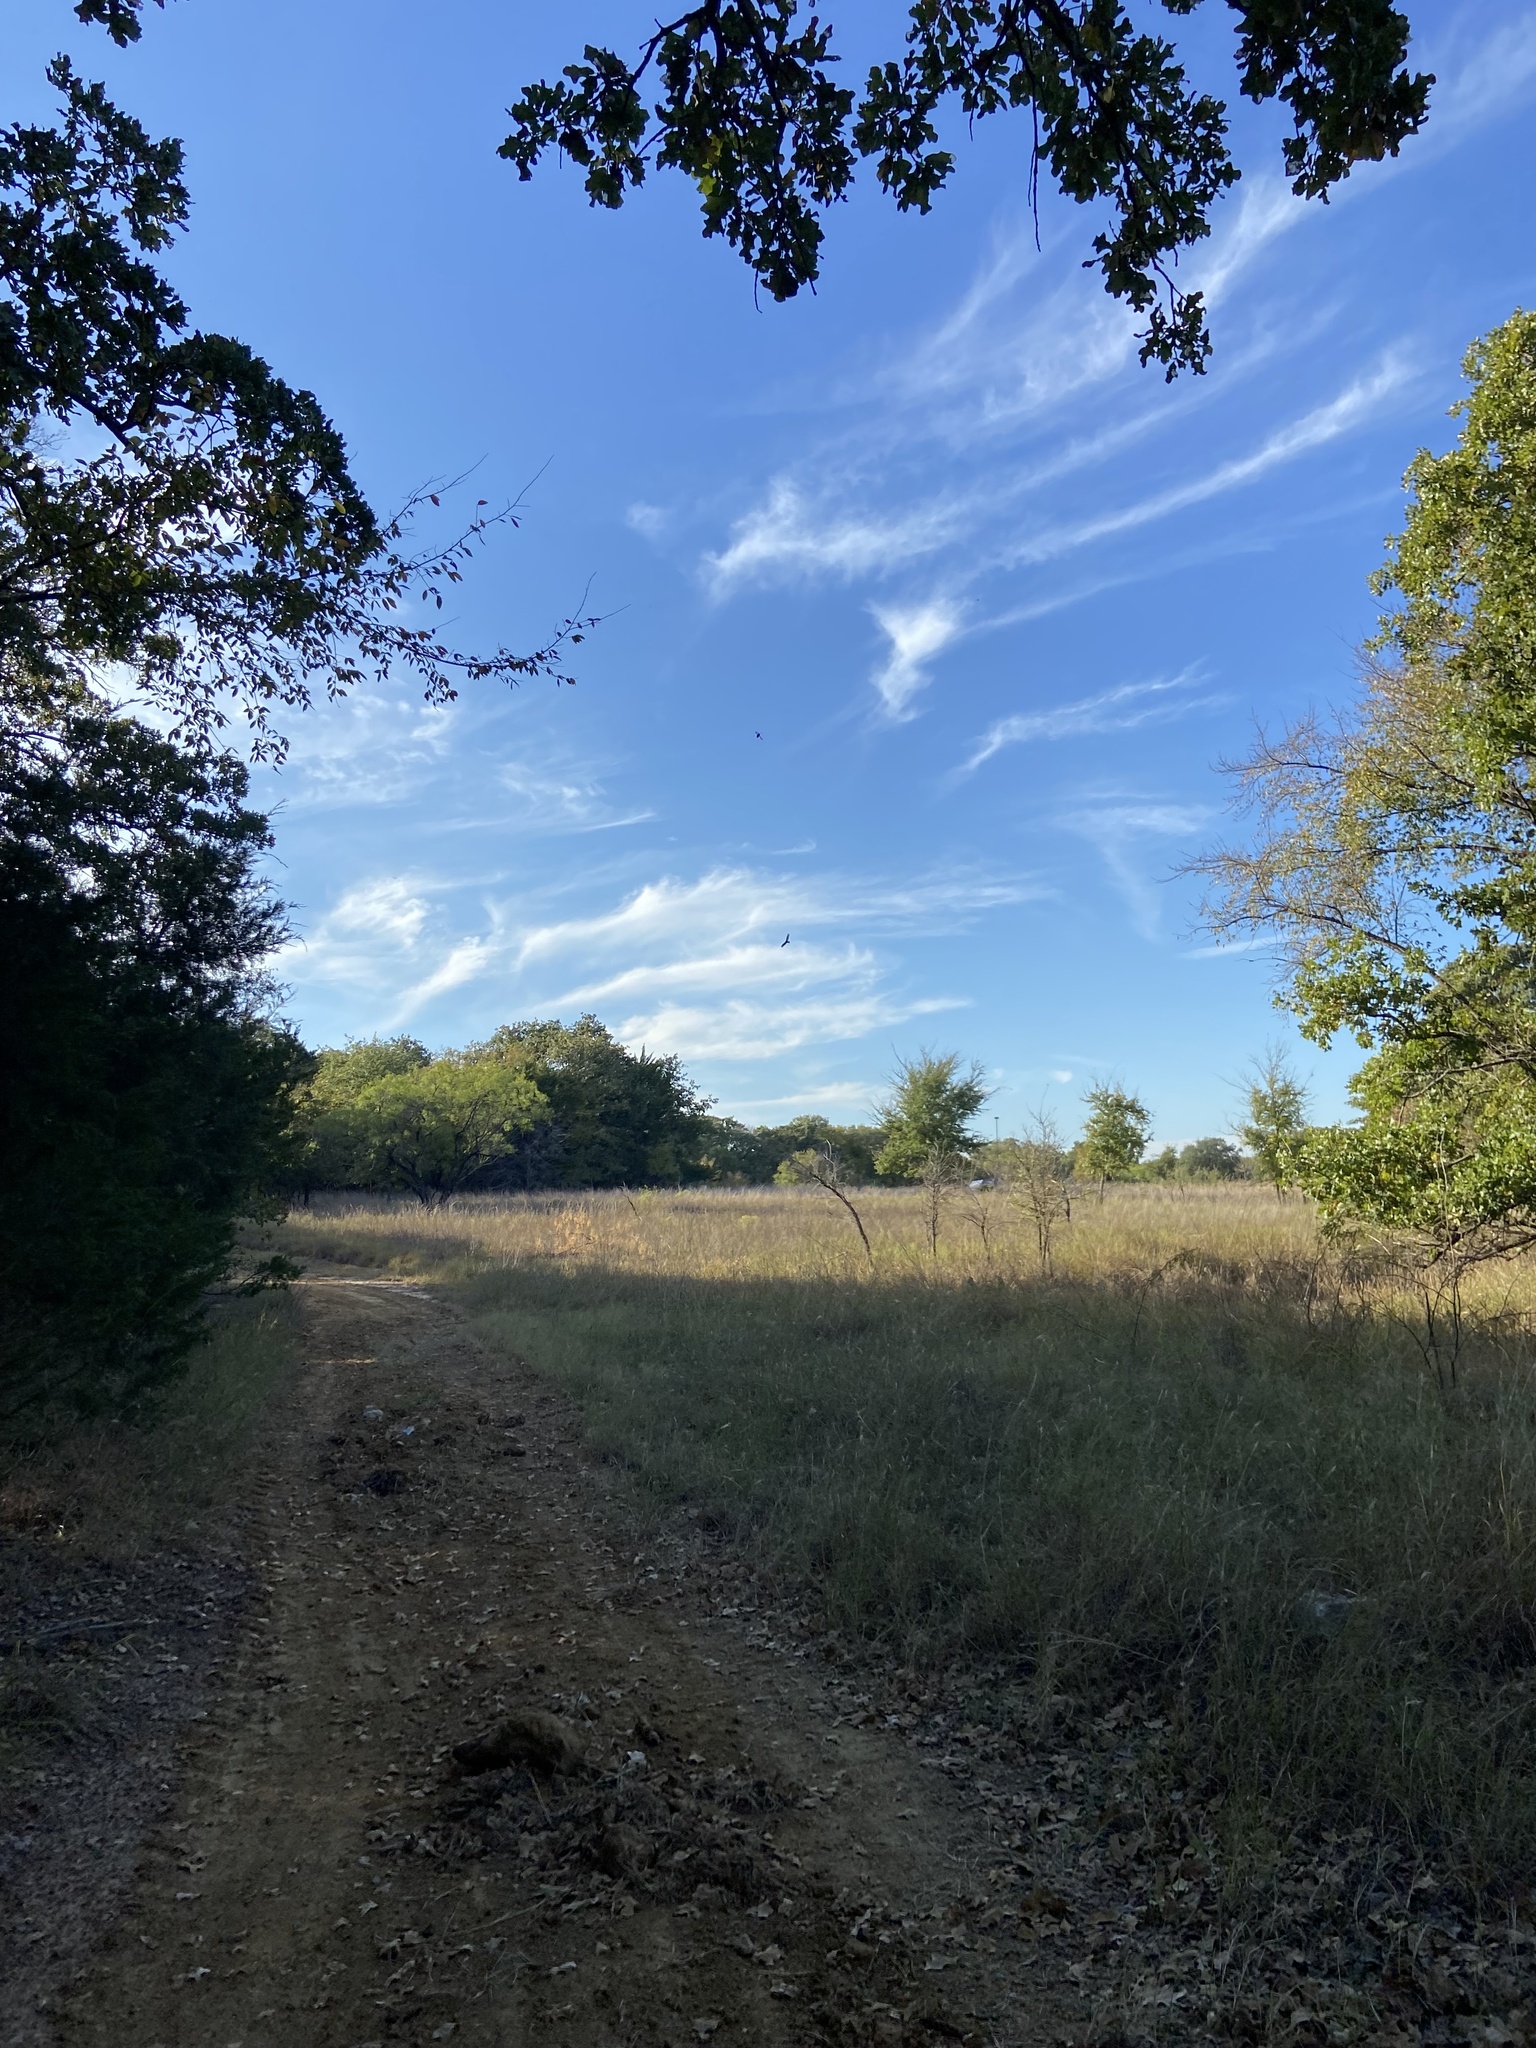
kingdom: Animalia
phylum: Chordata
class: Aves
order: Accipitriformes
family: Cathartidae
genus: Cathartes
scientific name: Cathartes aura
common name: Turkey vulture
